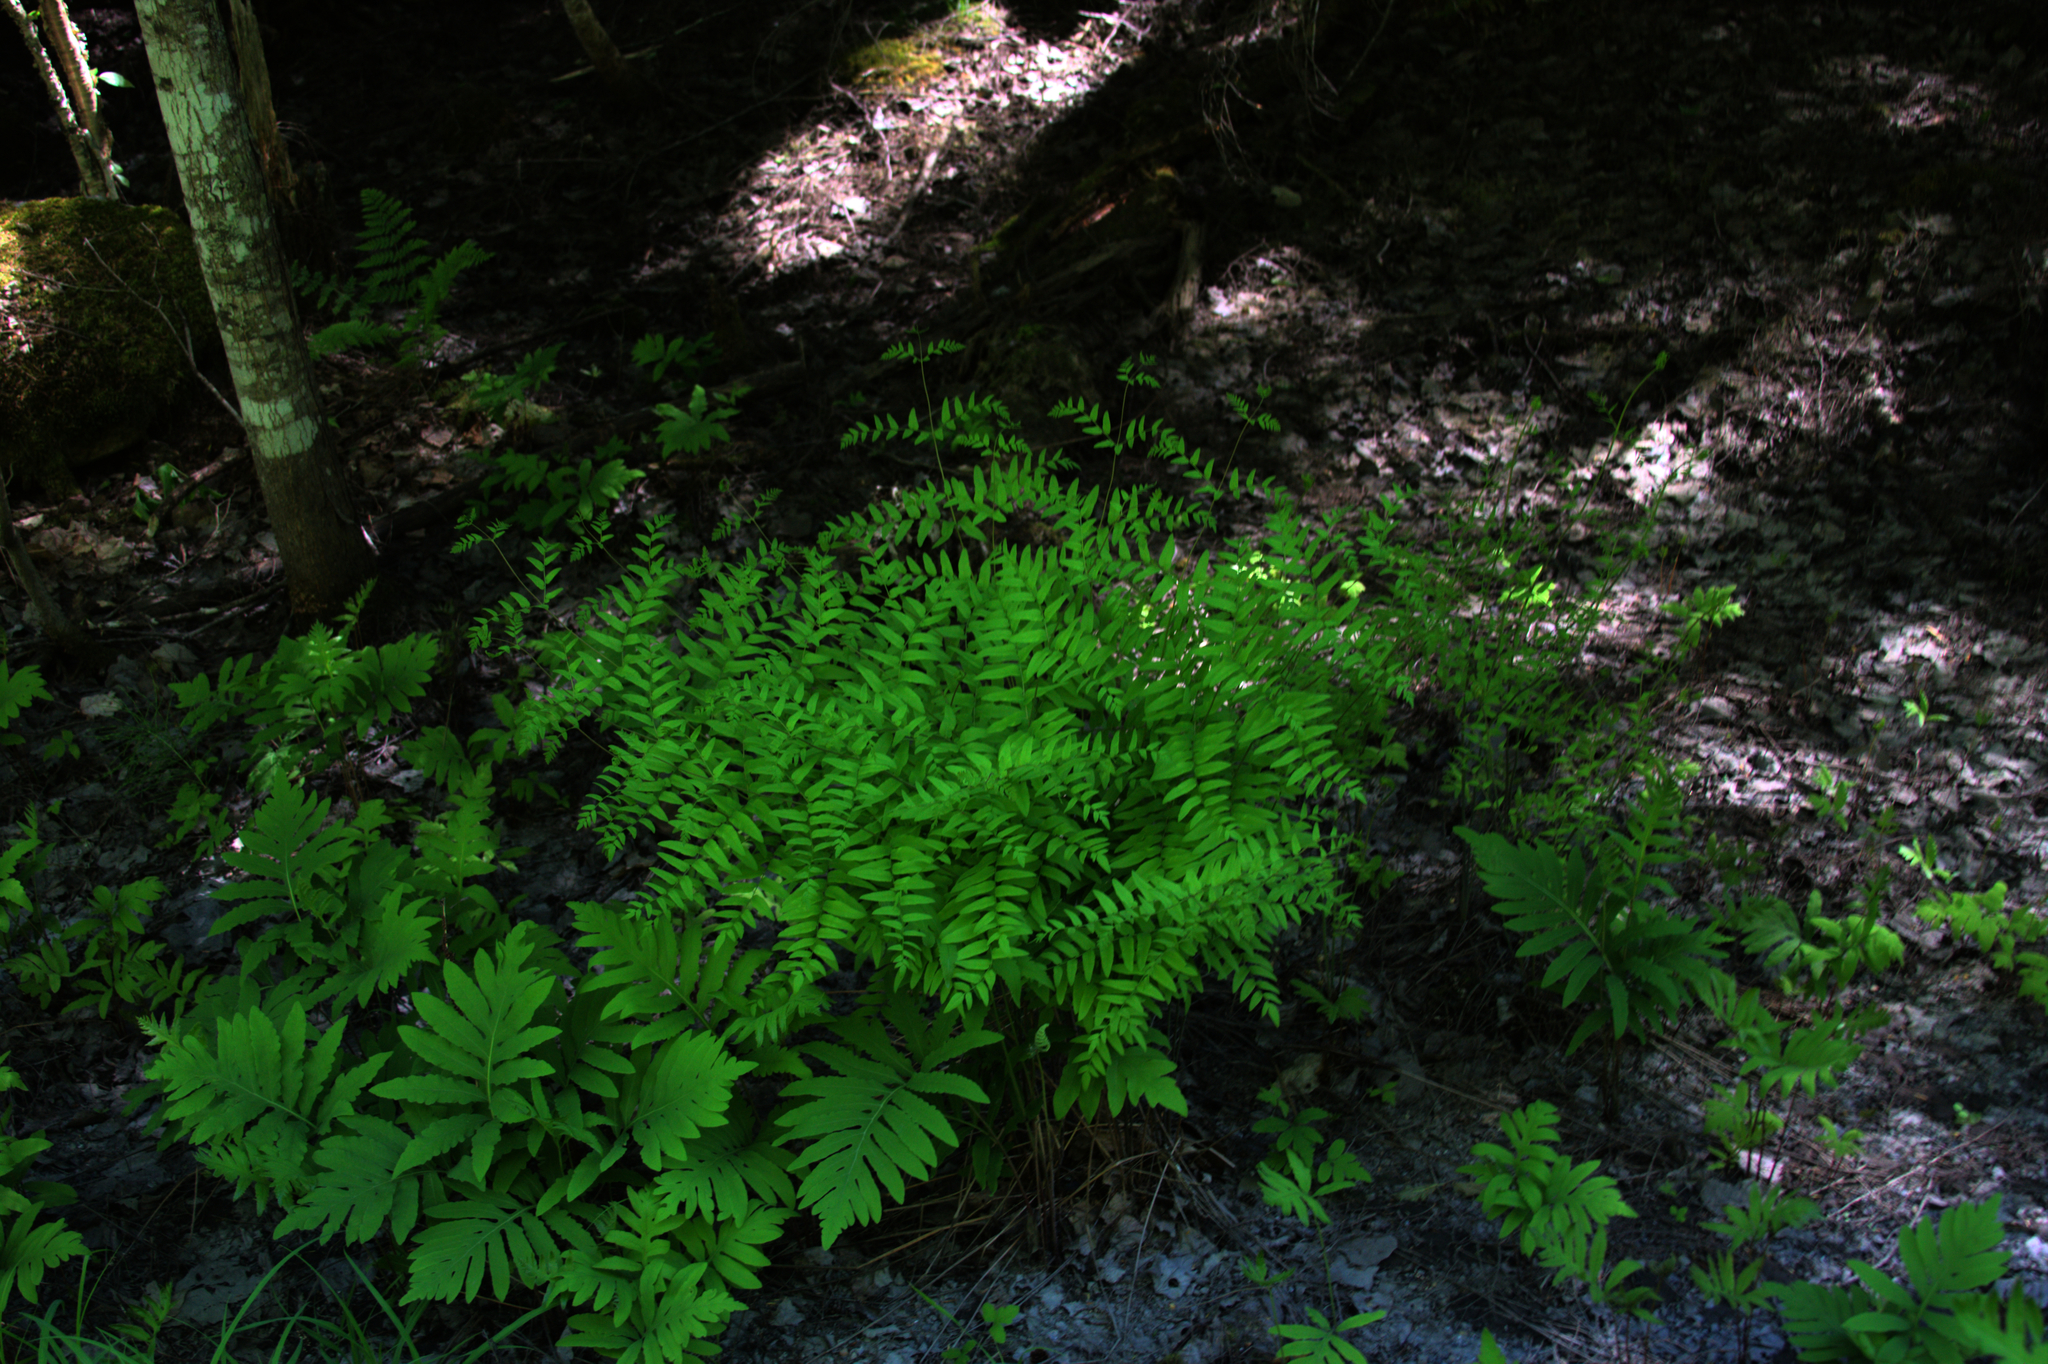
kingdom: Plantae
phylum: Tracheophyta
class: Polypodiopsida
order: Polypodiales
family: Onocleaceae
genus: Onoclea
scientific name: Onoclea sensibilis
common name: Sensitive fern
